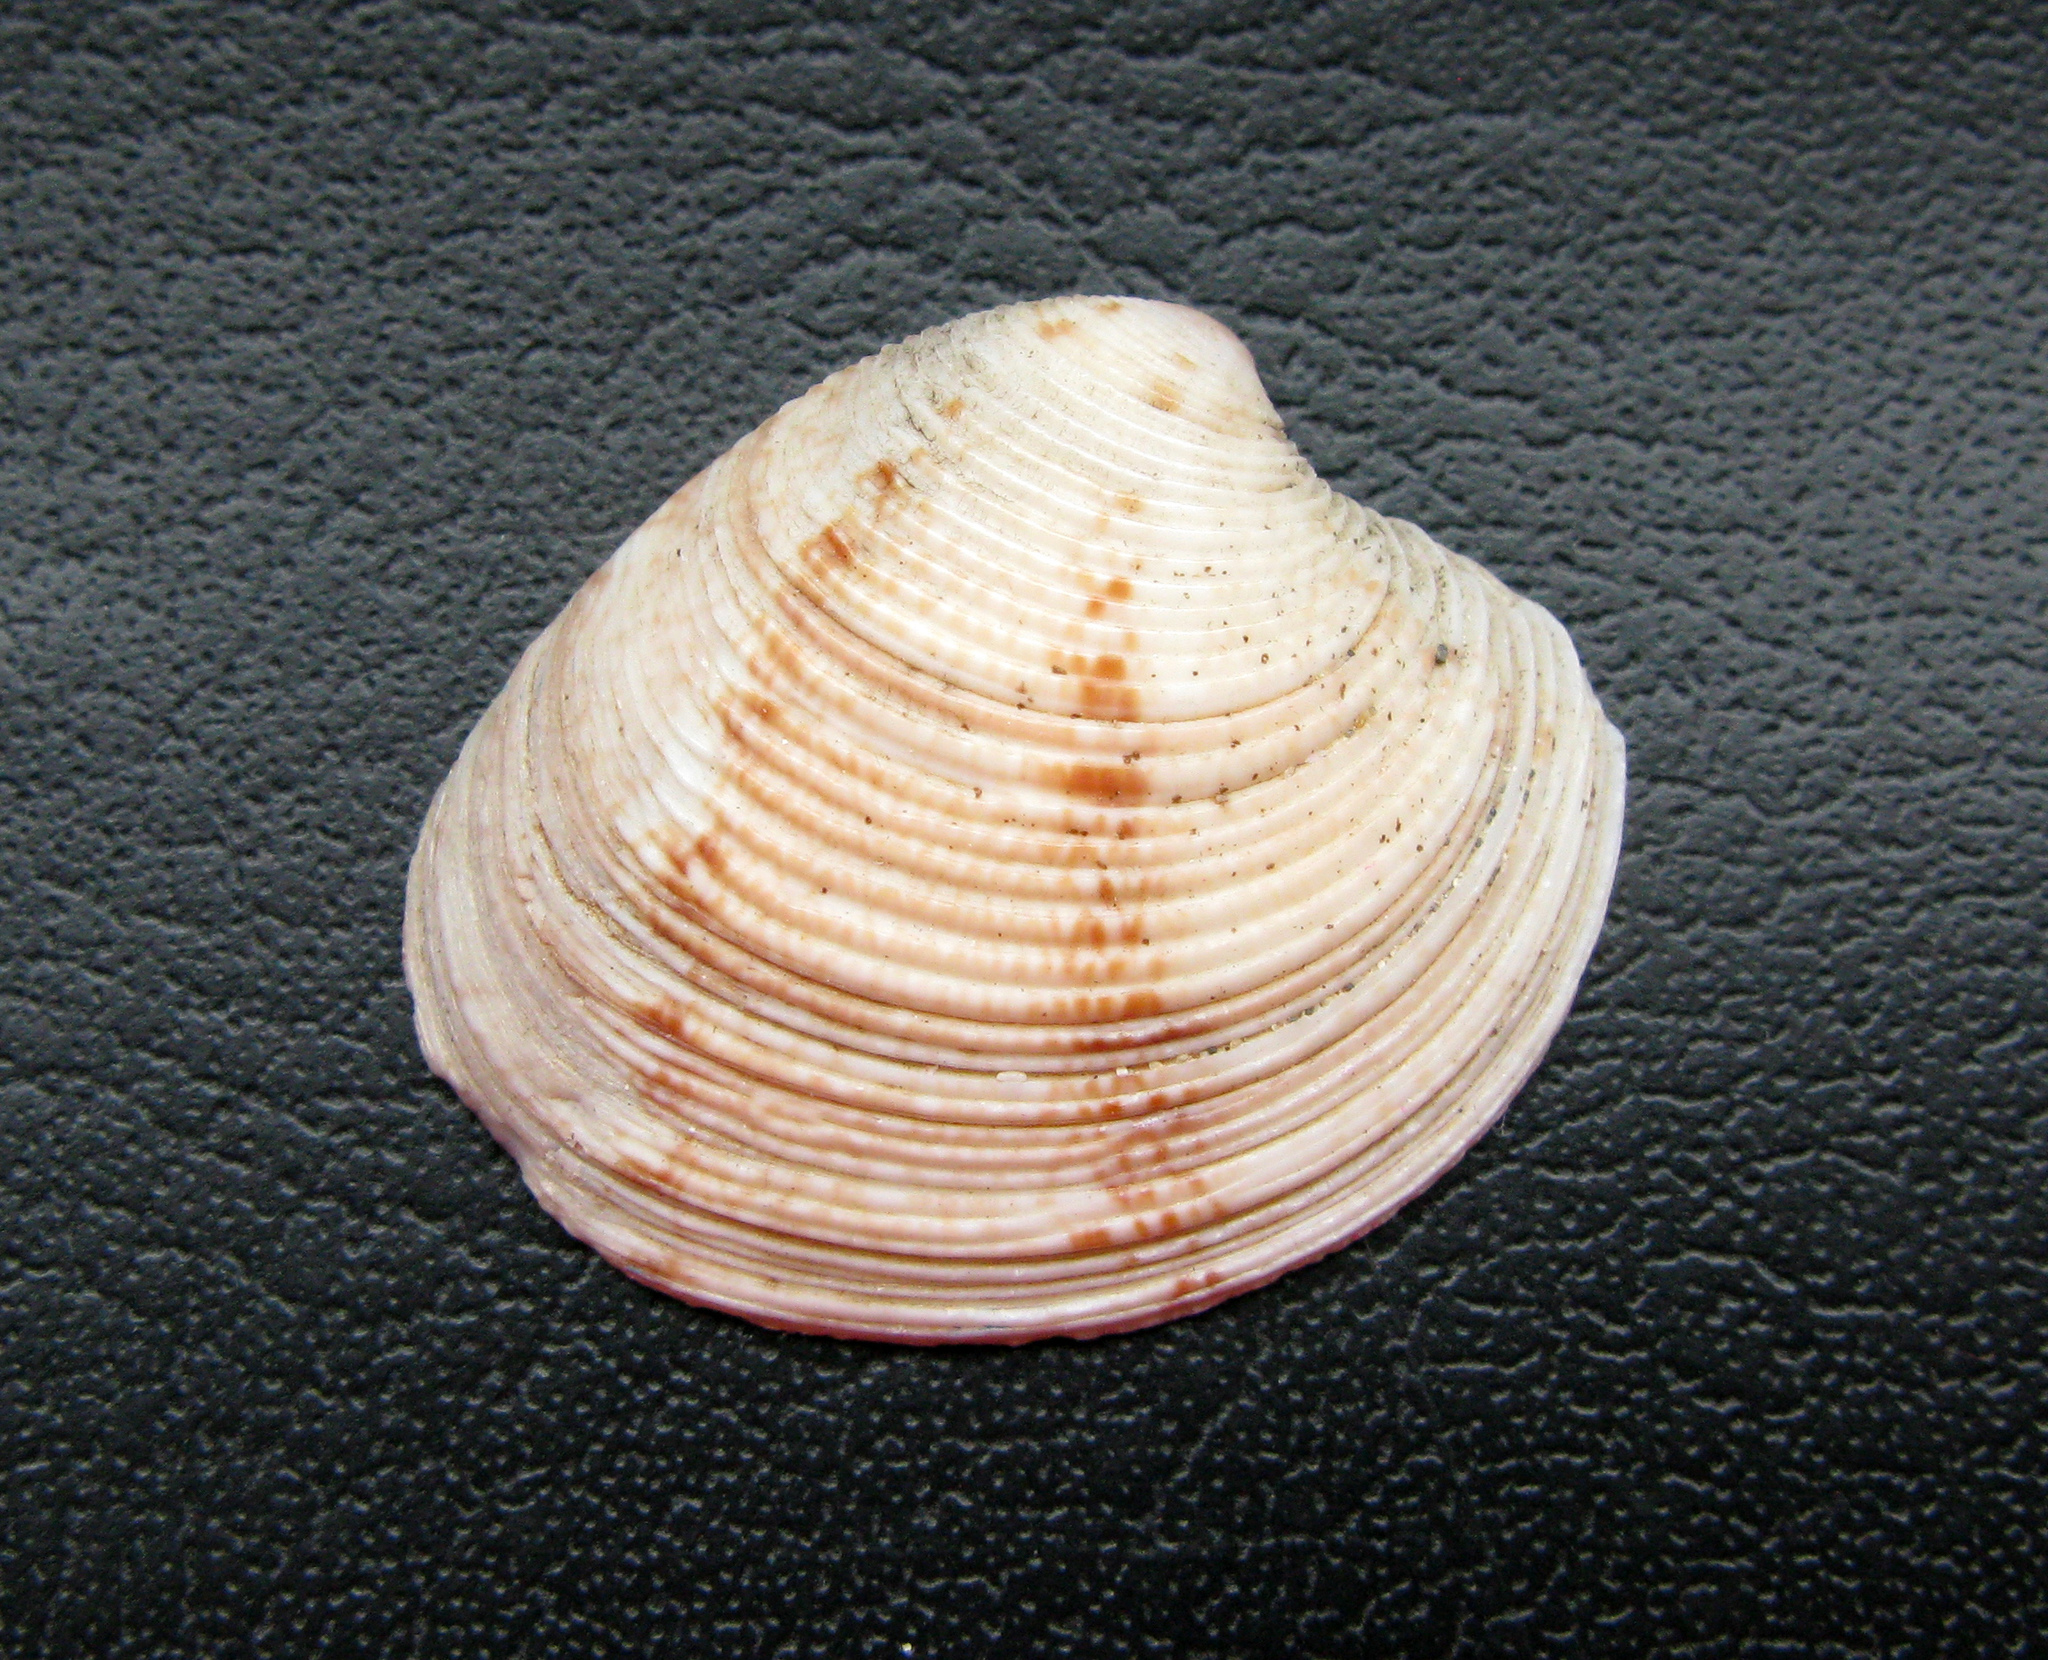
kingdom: Animalia
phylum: Mollusca
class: Bivalvia
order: Venerida
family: Veneridae
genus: Chamelea
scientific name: Chamelea gallina
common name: Chicken venus
